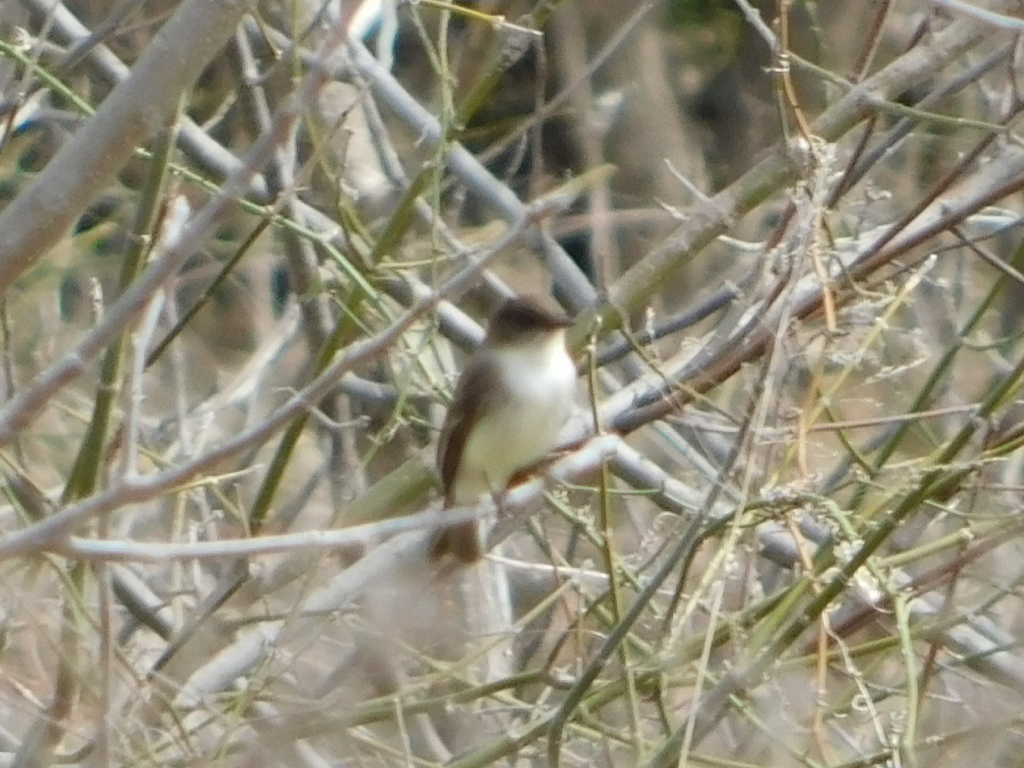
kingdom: Animalia
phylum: Chordata
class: Aves
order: Passeriformes
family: Tyrannidae
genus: Sayornis
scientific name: Sayornis phoebe
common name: Eastern phoebe
